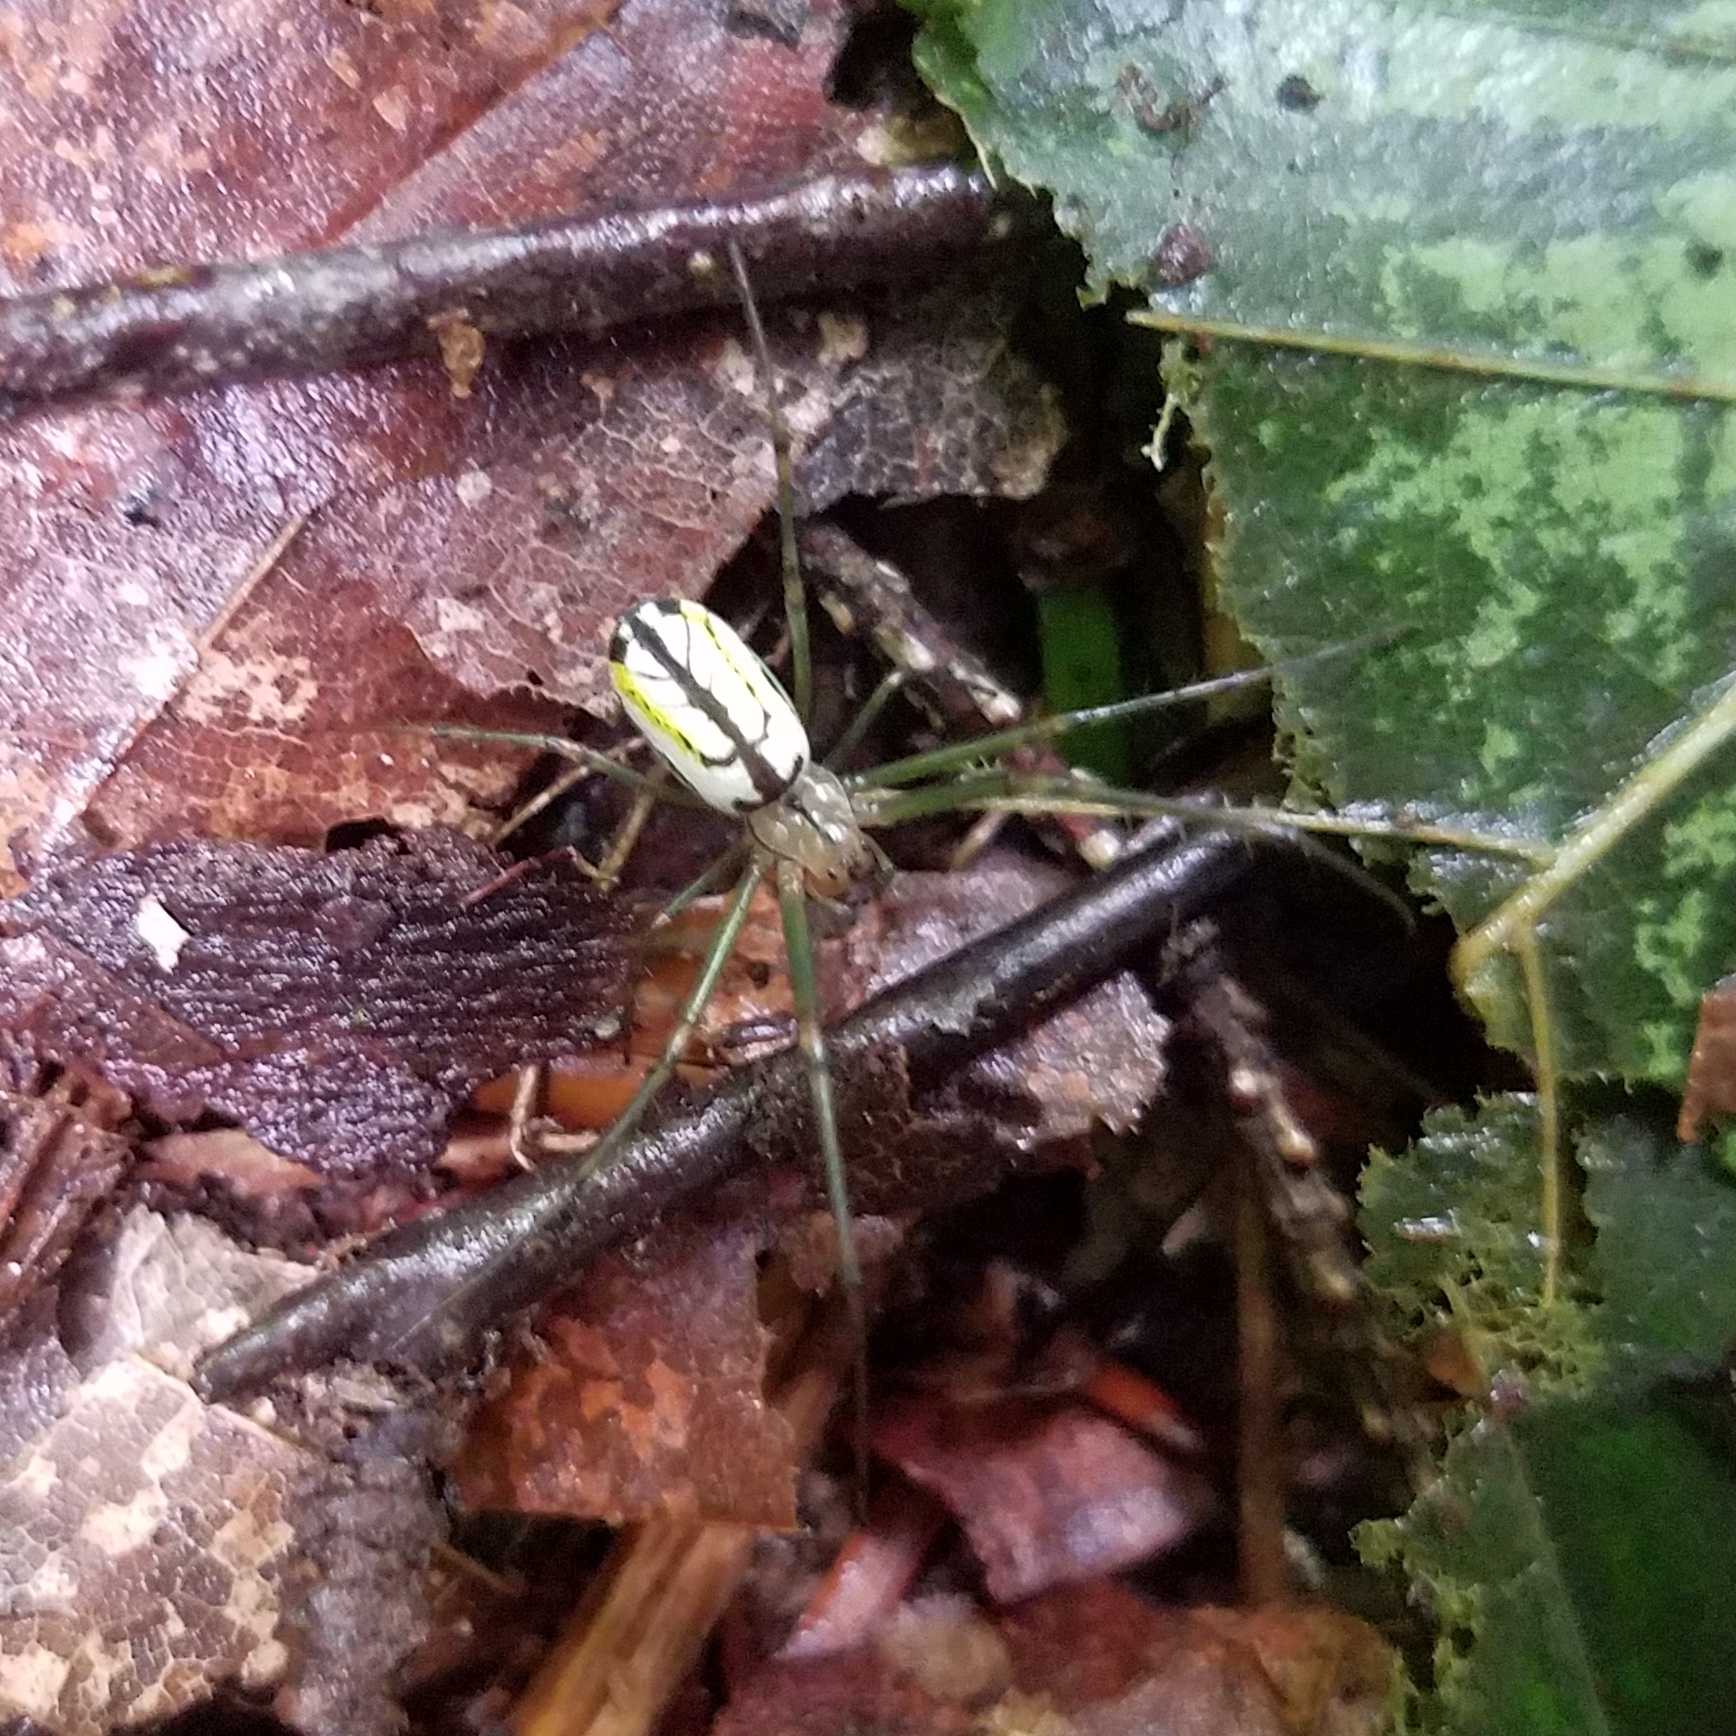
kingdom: Animalia
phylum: Arthropoda
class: Arachnida
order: Araneae
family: Tetragnathidae
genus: Leucauge
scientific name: Leucauge venusta
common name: Longjawed orb weavers
